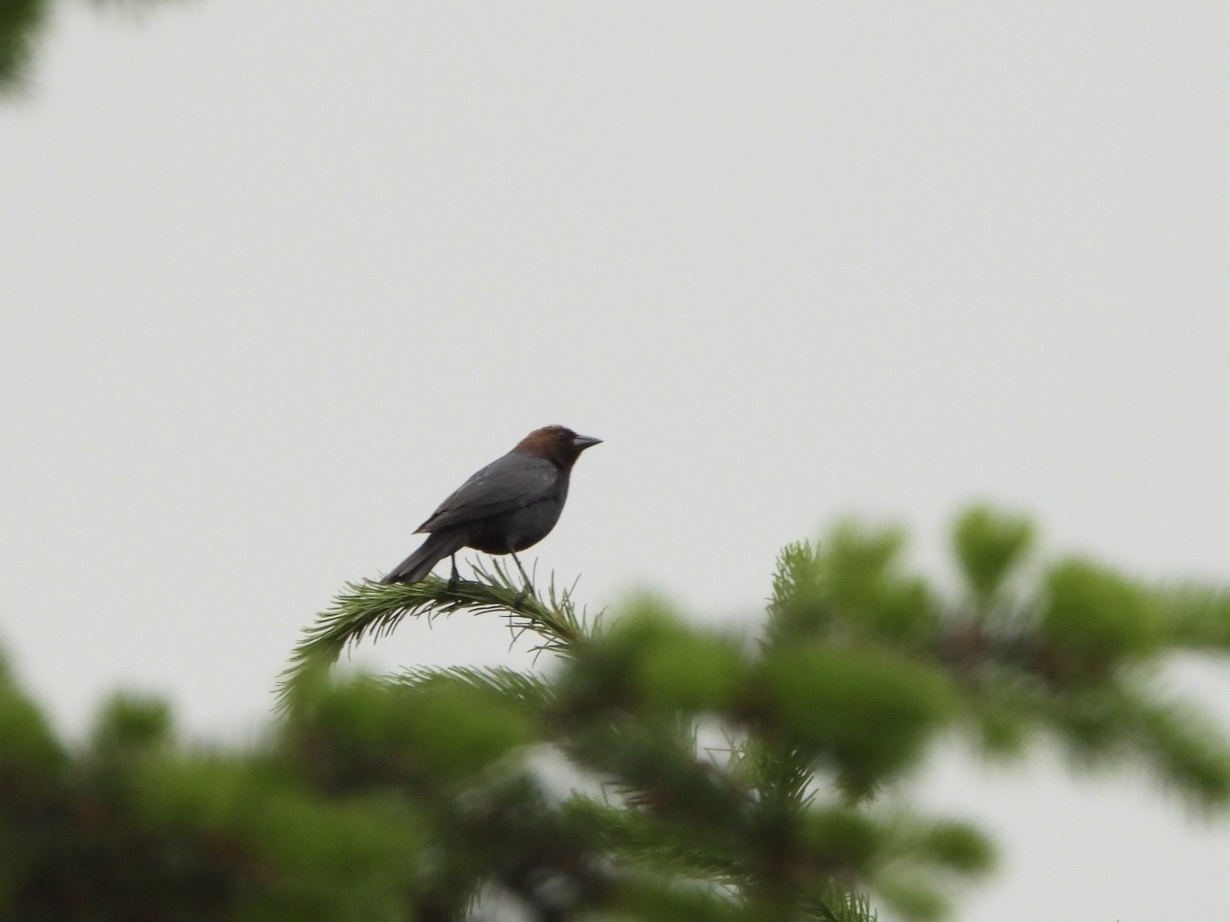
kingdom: Animalia
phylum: Chordata
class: Aves
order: Passeriformes
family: Icteridae
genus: Molothrus
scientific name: Molothrus ater
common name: Brown-headed cowbird
